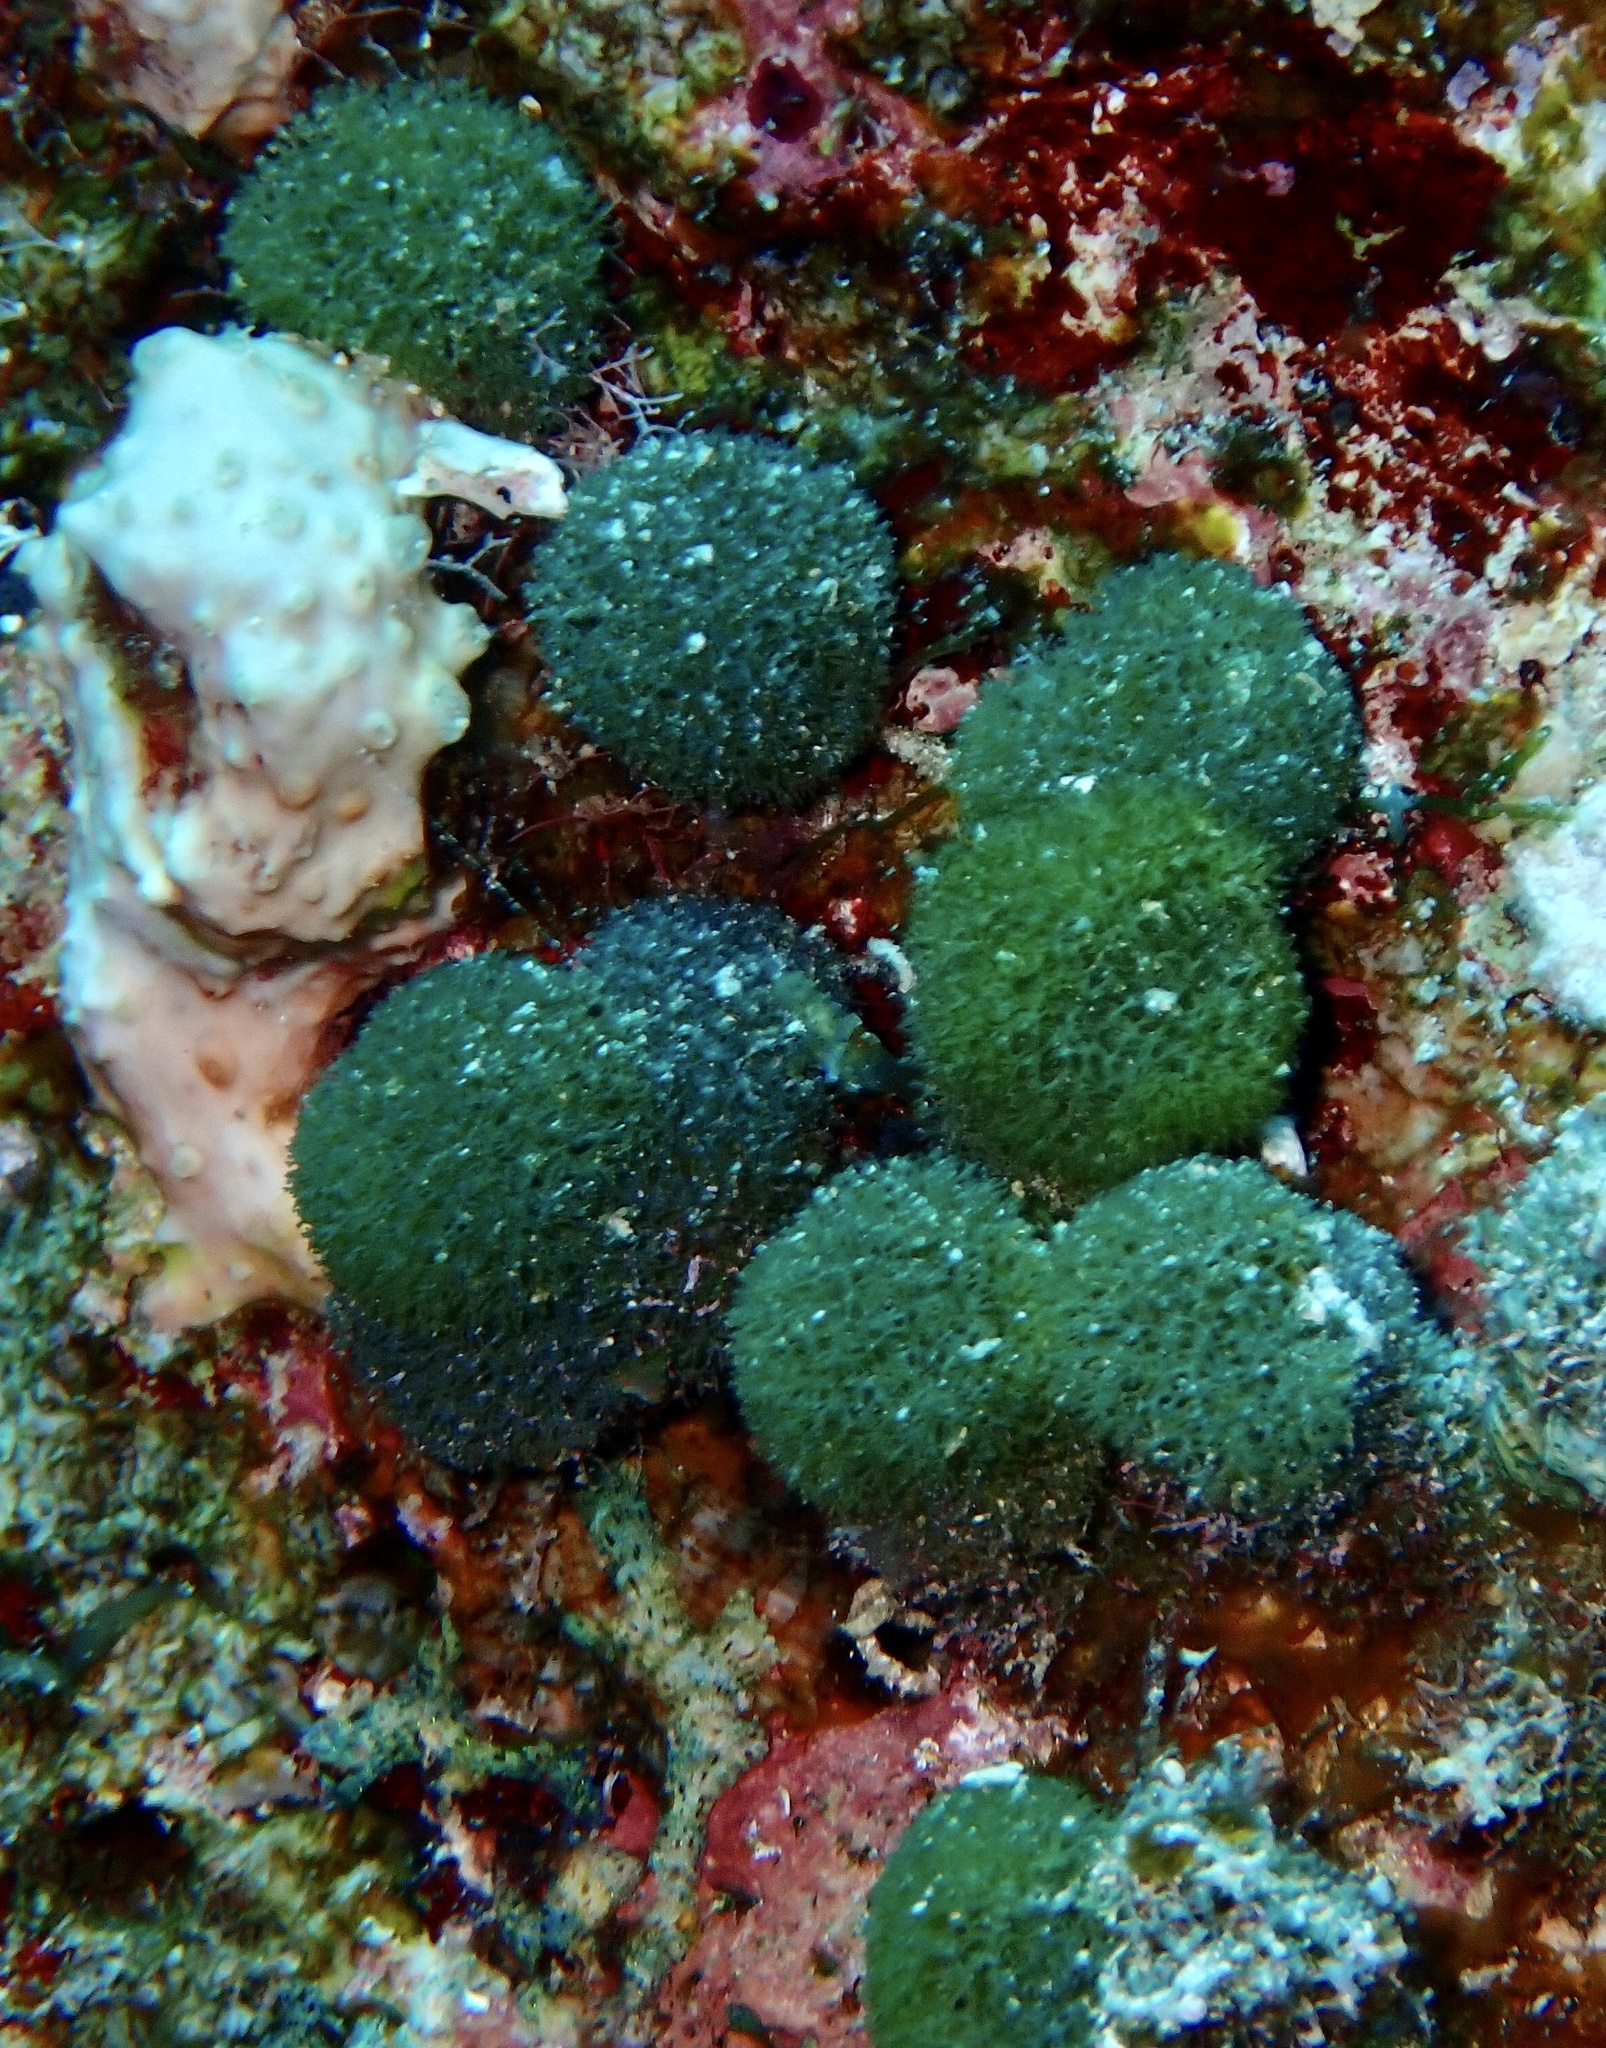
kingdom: Plantae
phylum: Chlorophyta
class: Ulvophyceae
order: Bryopsidales
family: Udoteaceae
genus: Tydemania
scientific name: Tydemania expeditionis
